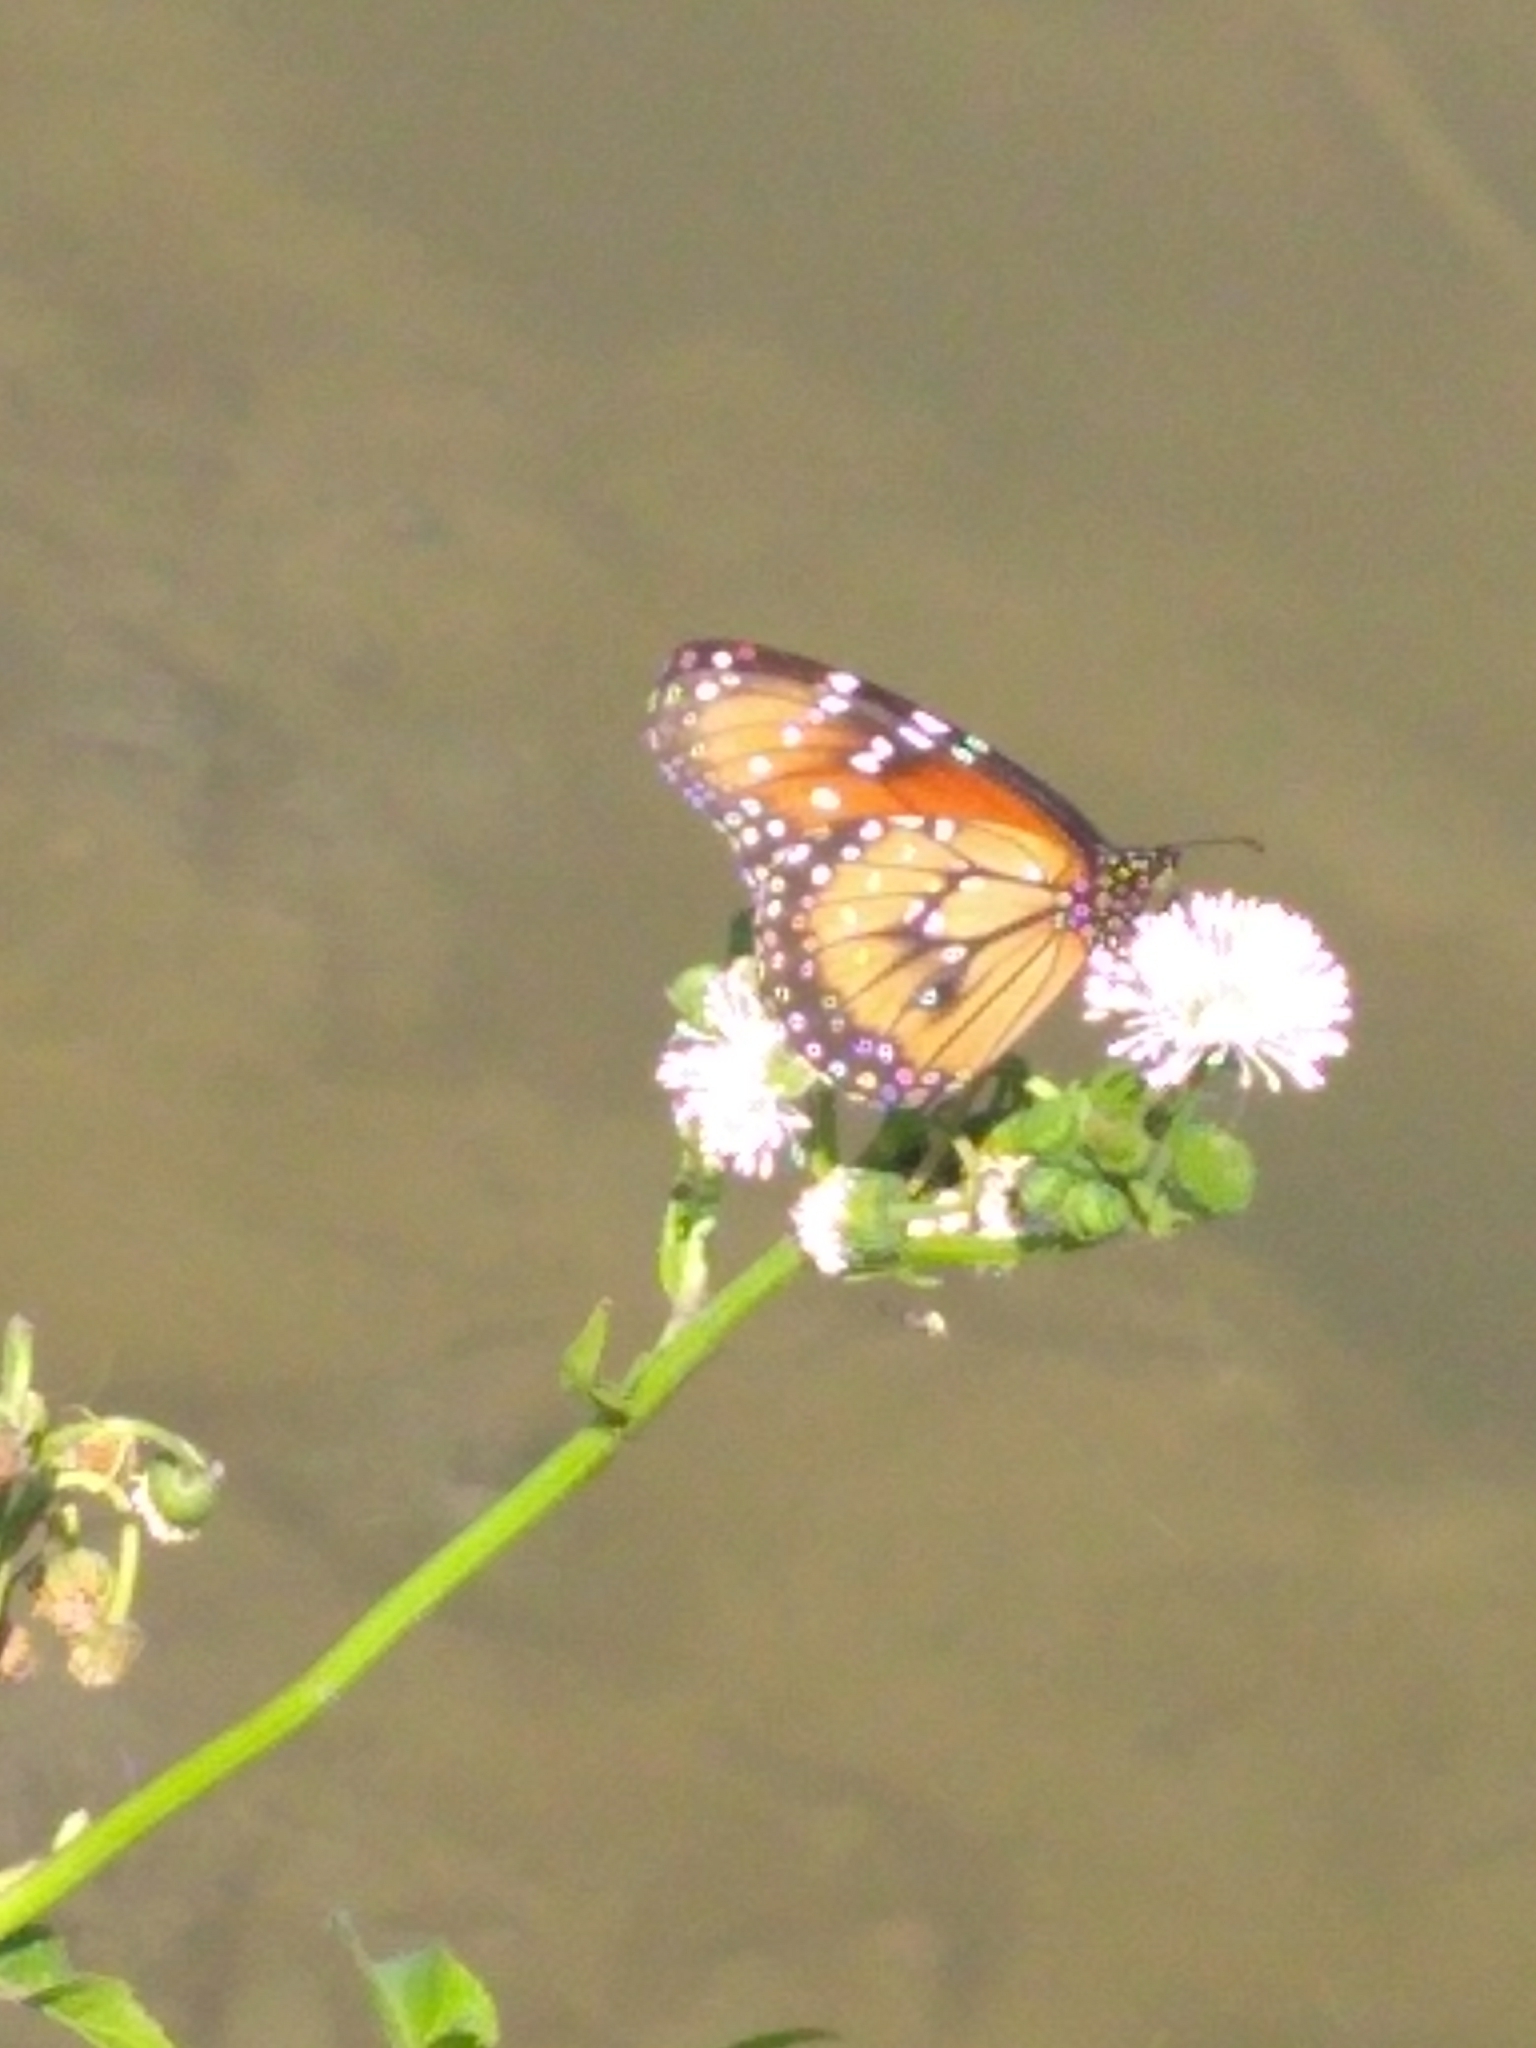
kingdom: Animalia
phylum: Arthropoda
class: Insecta
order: Lepidoptera
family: Nymphalidae
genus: Danaus
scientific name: Danaus eresimus
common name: Soldier
